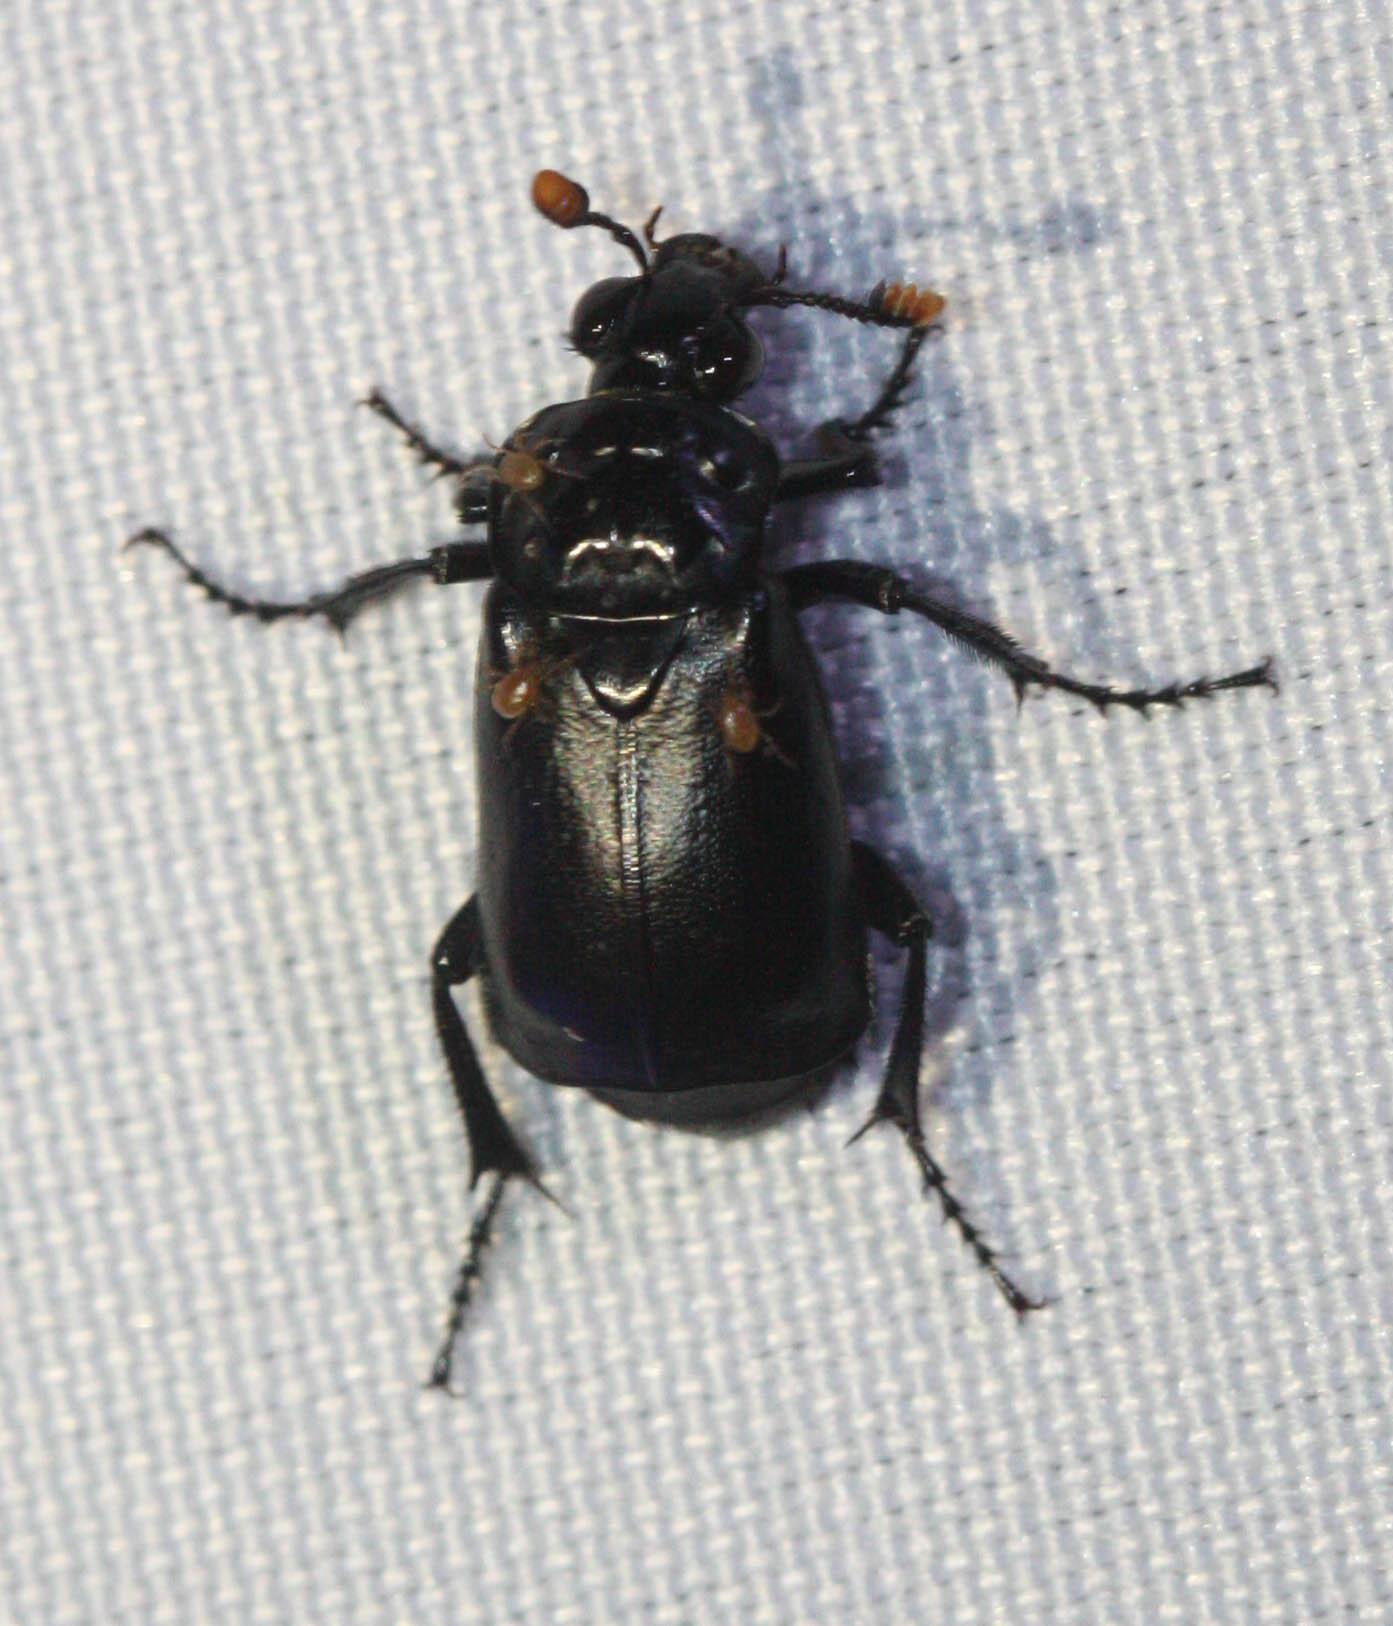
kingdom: Animalia
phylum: Arthropoda
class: Insecta
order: Coleoptera
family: Staphylinidae
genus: Nicrophorus
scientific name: Nicrophorus nigrita
